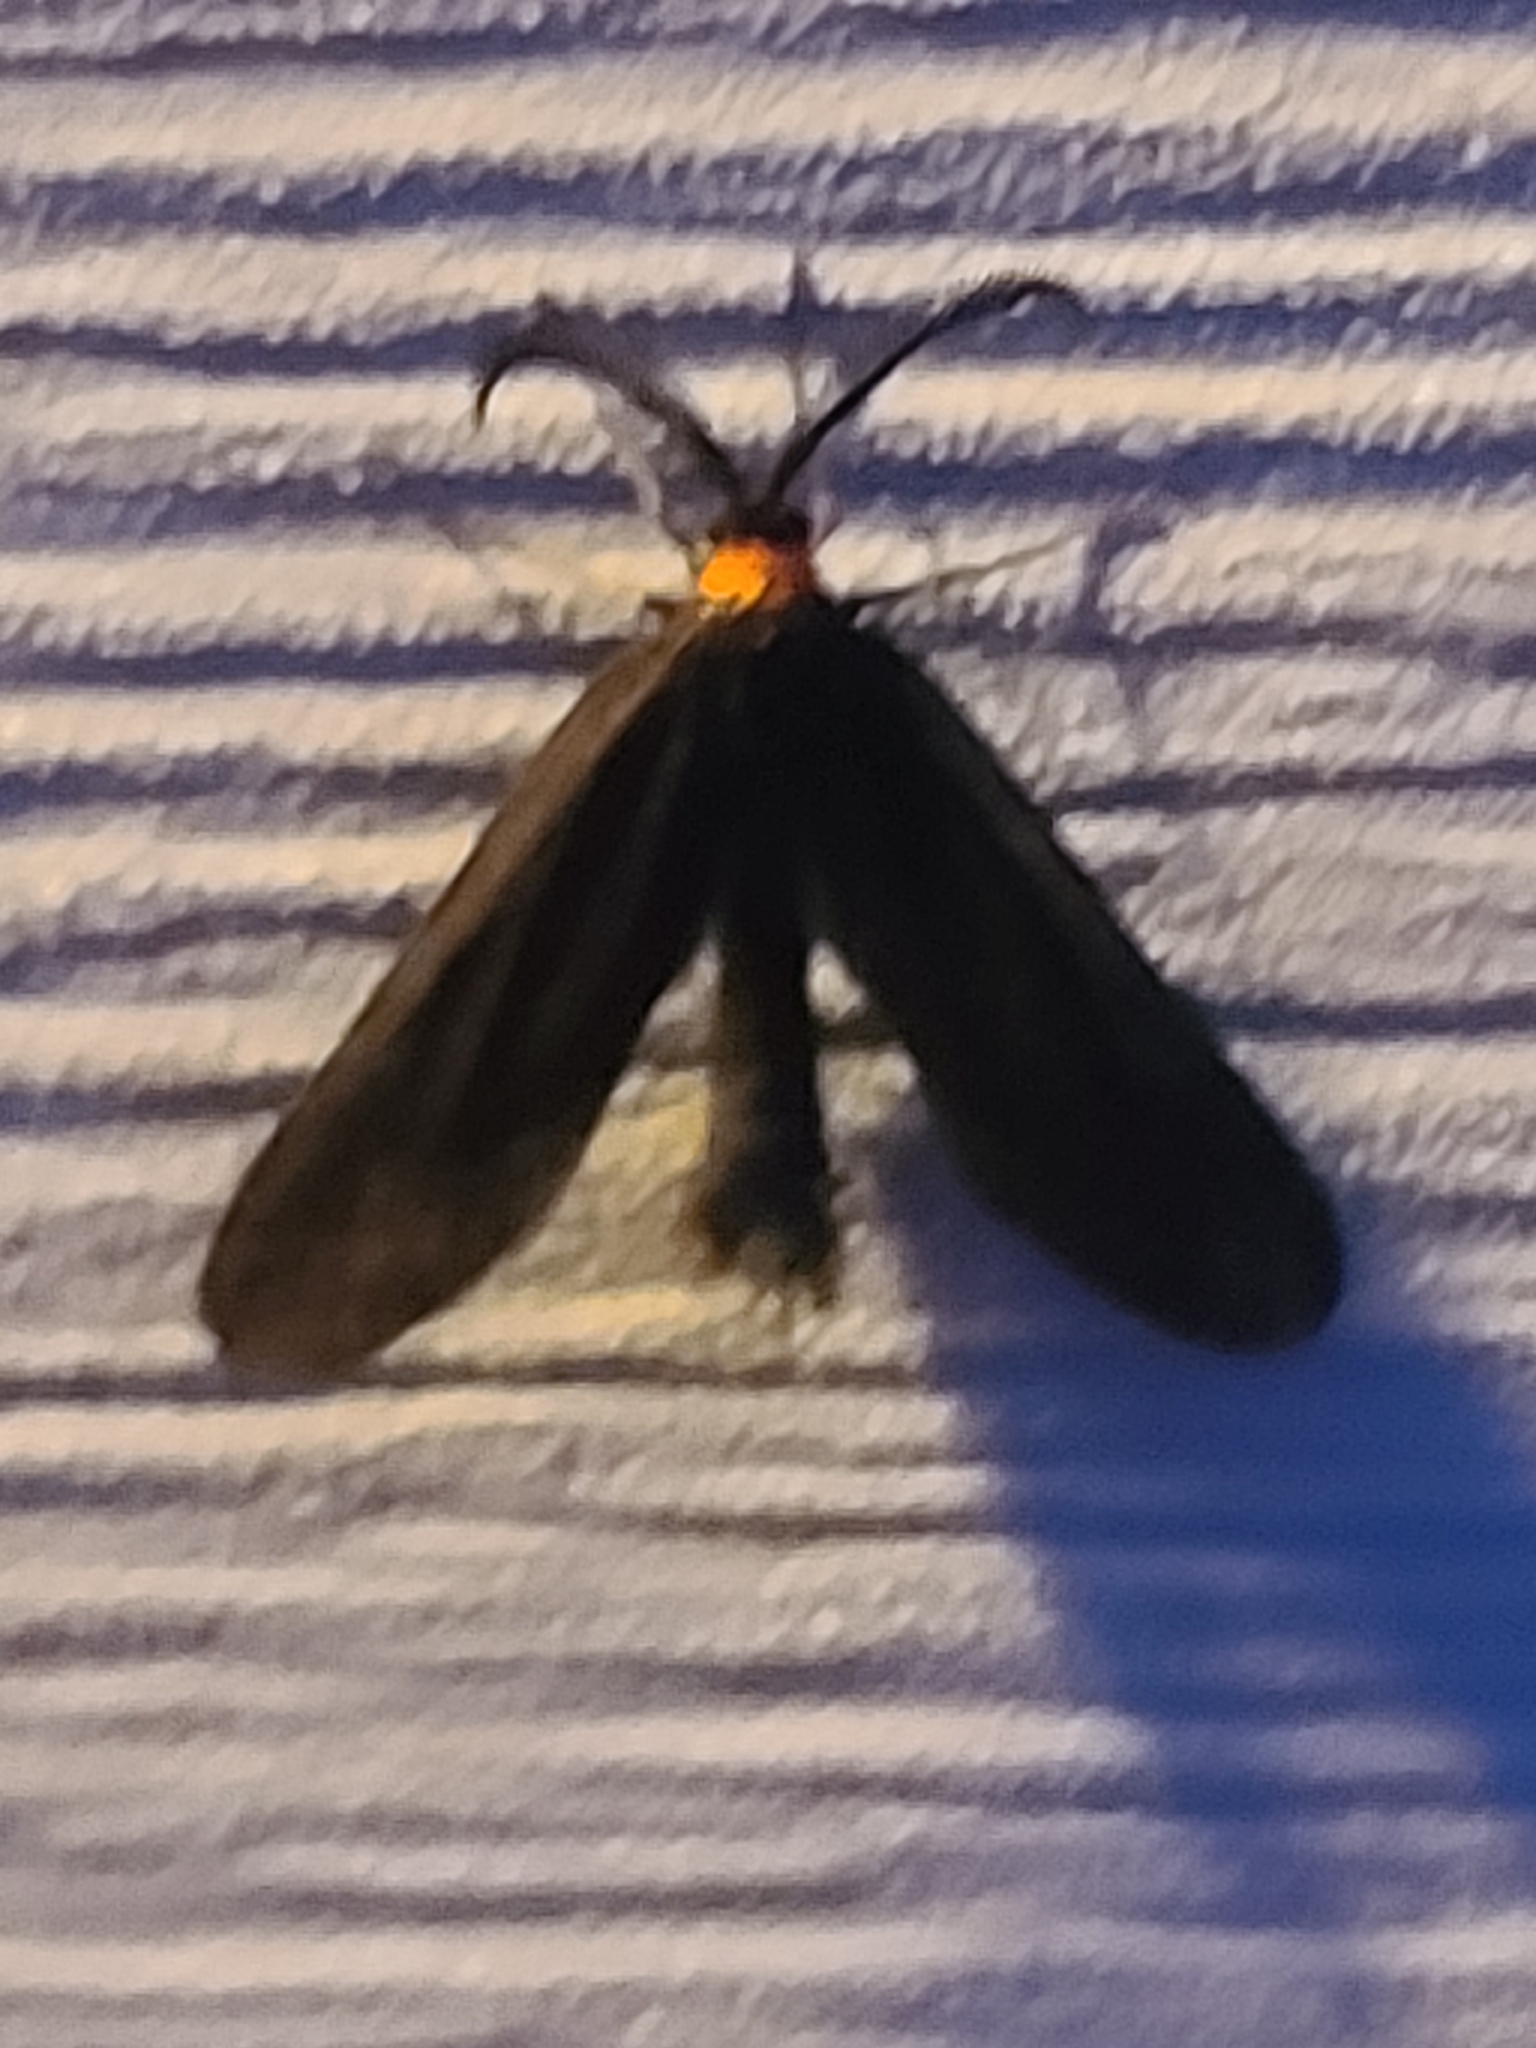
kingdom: Animalia
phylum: Arthropoda
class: Insecta
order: Lepidoptera
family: Zygaenidae
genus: Harrisina
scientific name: Harrisina americana
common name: Grapeleaf skeletonizer moth
